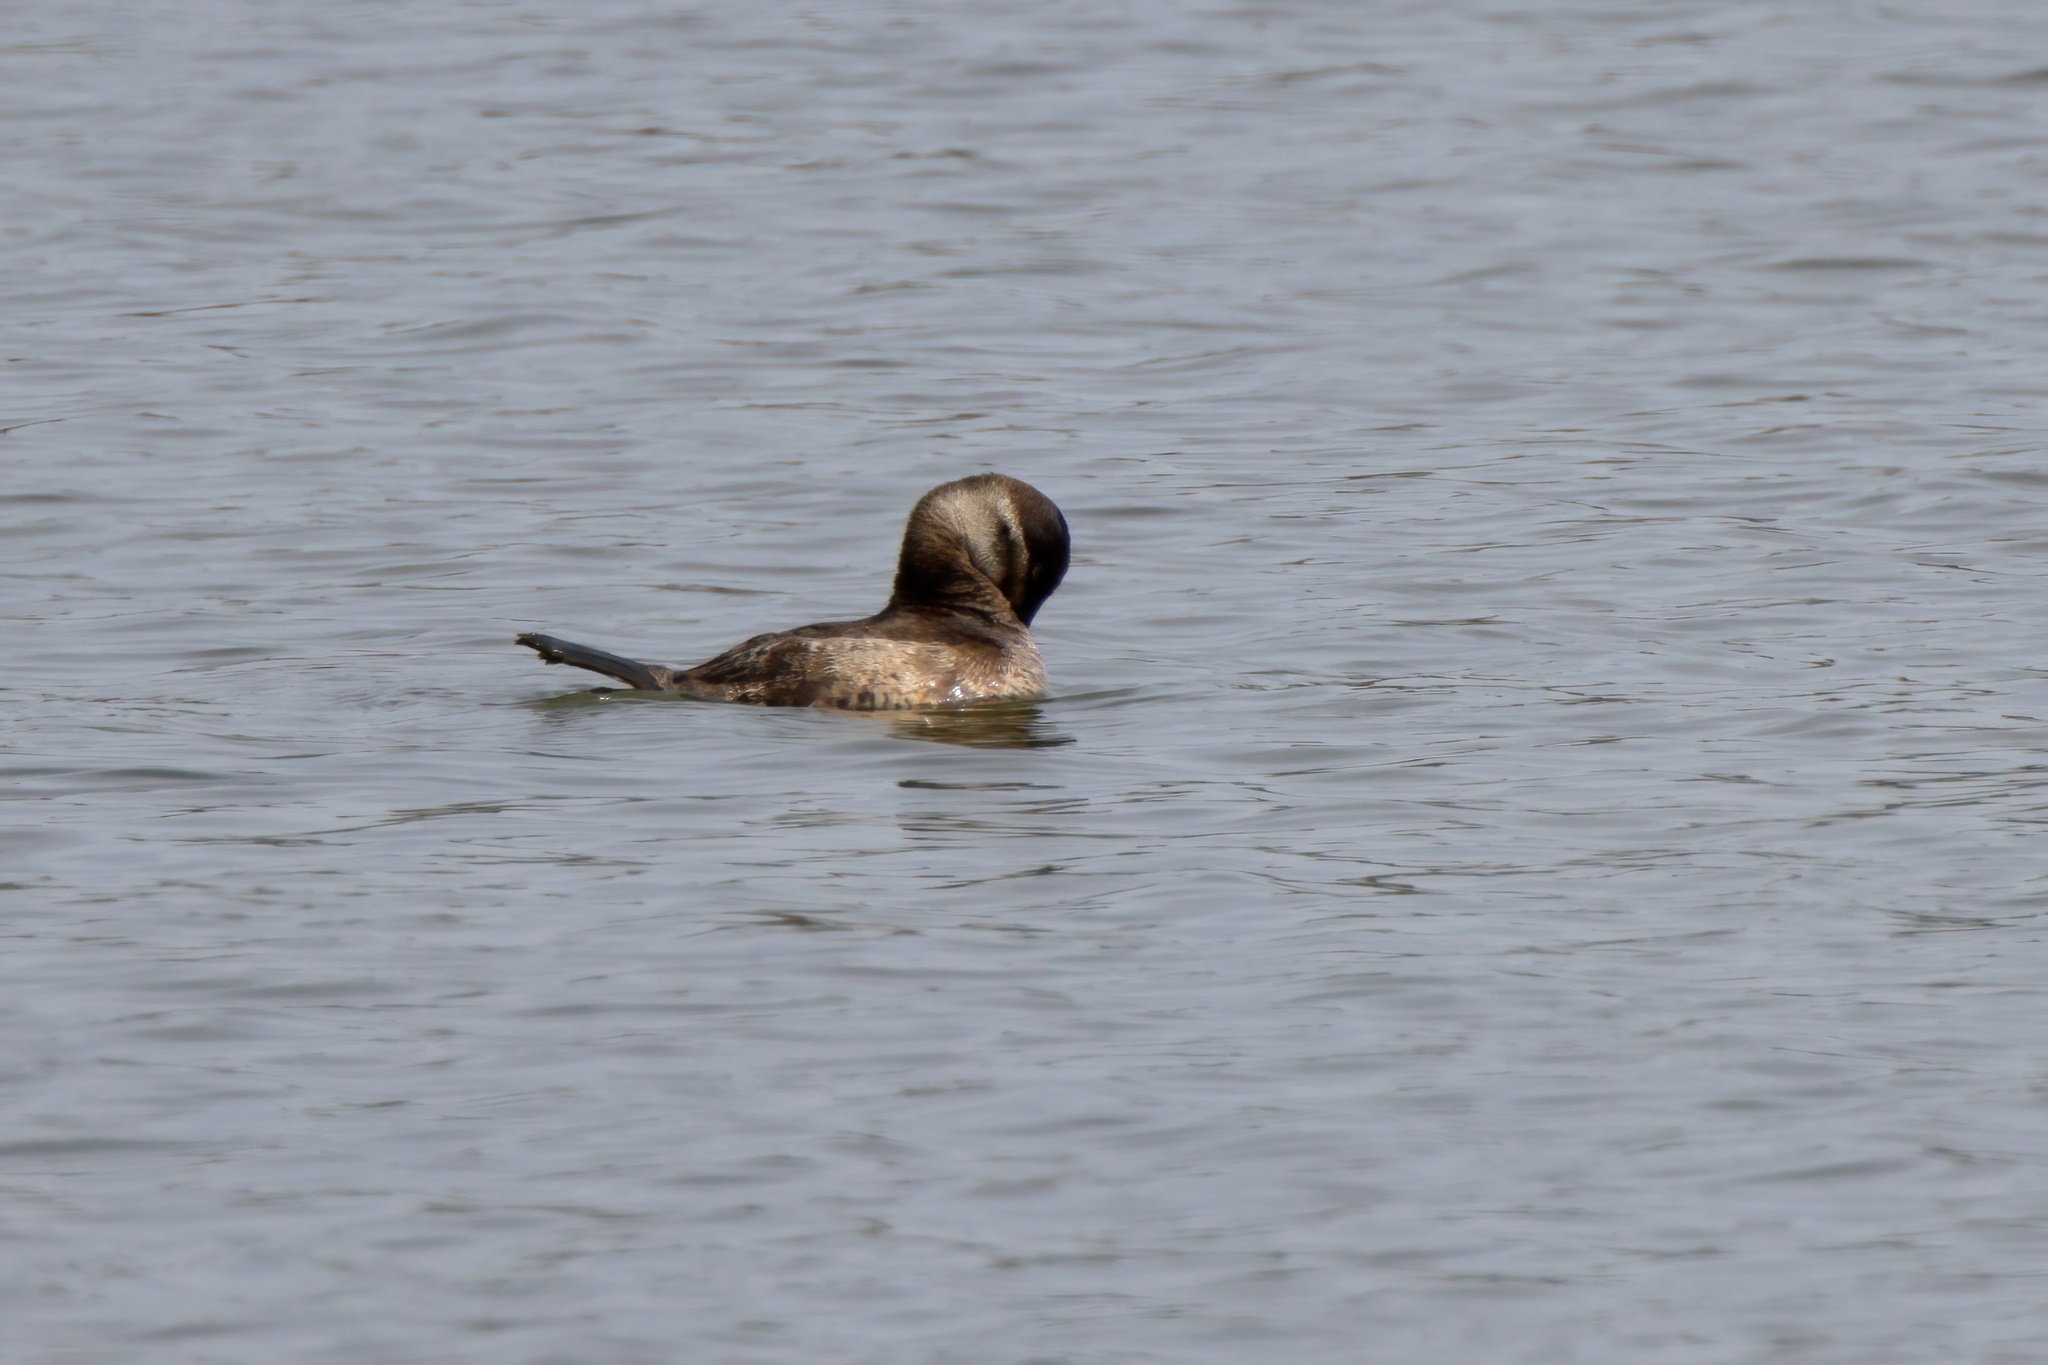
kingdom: Animalia
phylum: Chordata
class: Aves
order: Anseriformes
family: Anatidae
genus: Oxyura
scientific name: Oxyura jamaicensis
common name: Ruddy duck
